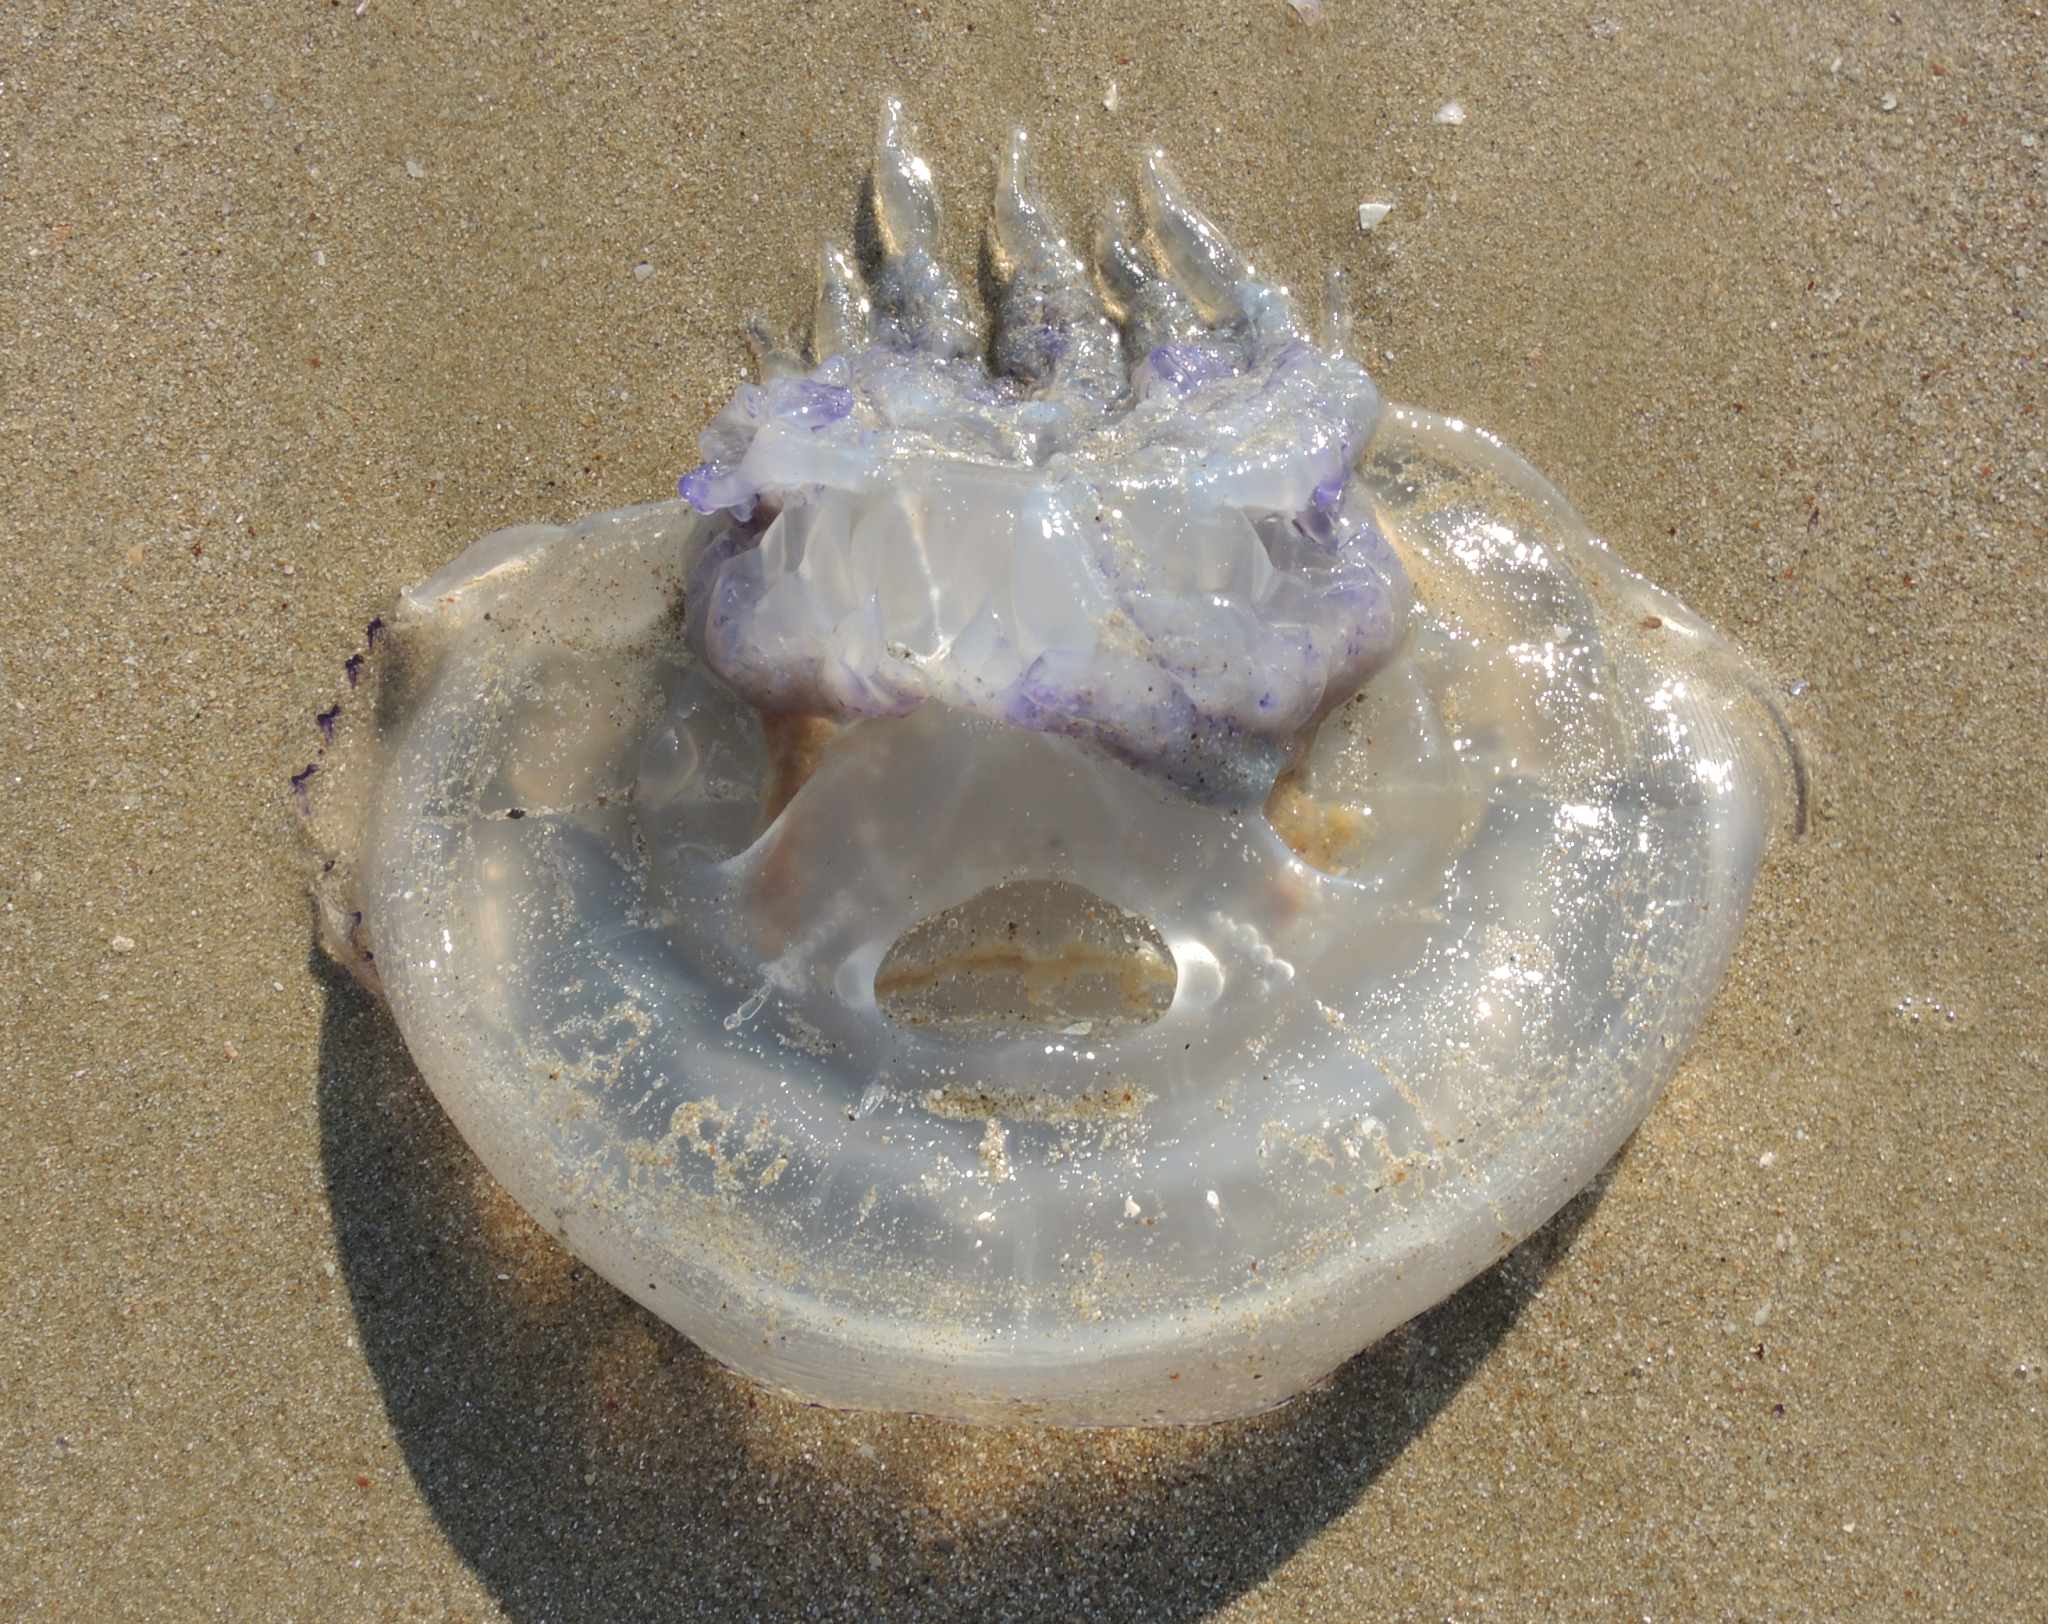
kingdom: Animalia
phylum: Cnidaria
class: Scyphozoa
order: Rhizostomeae
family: Rhizostomatidae
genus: Rhizostoma
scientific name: Rhizostoma pulmo
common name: Barrel jellyfish
